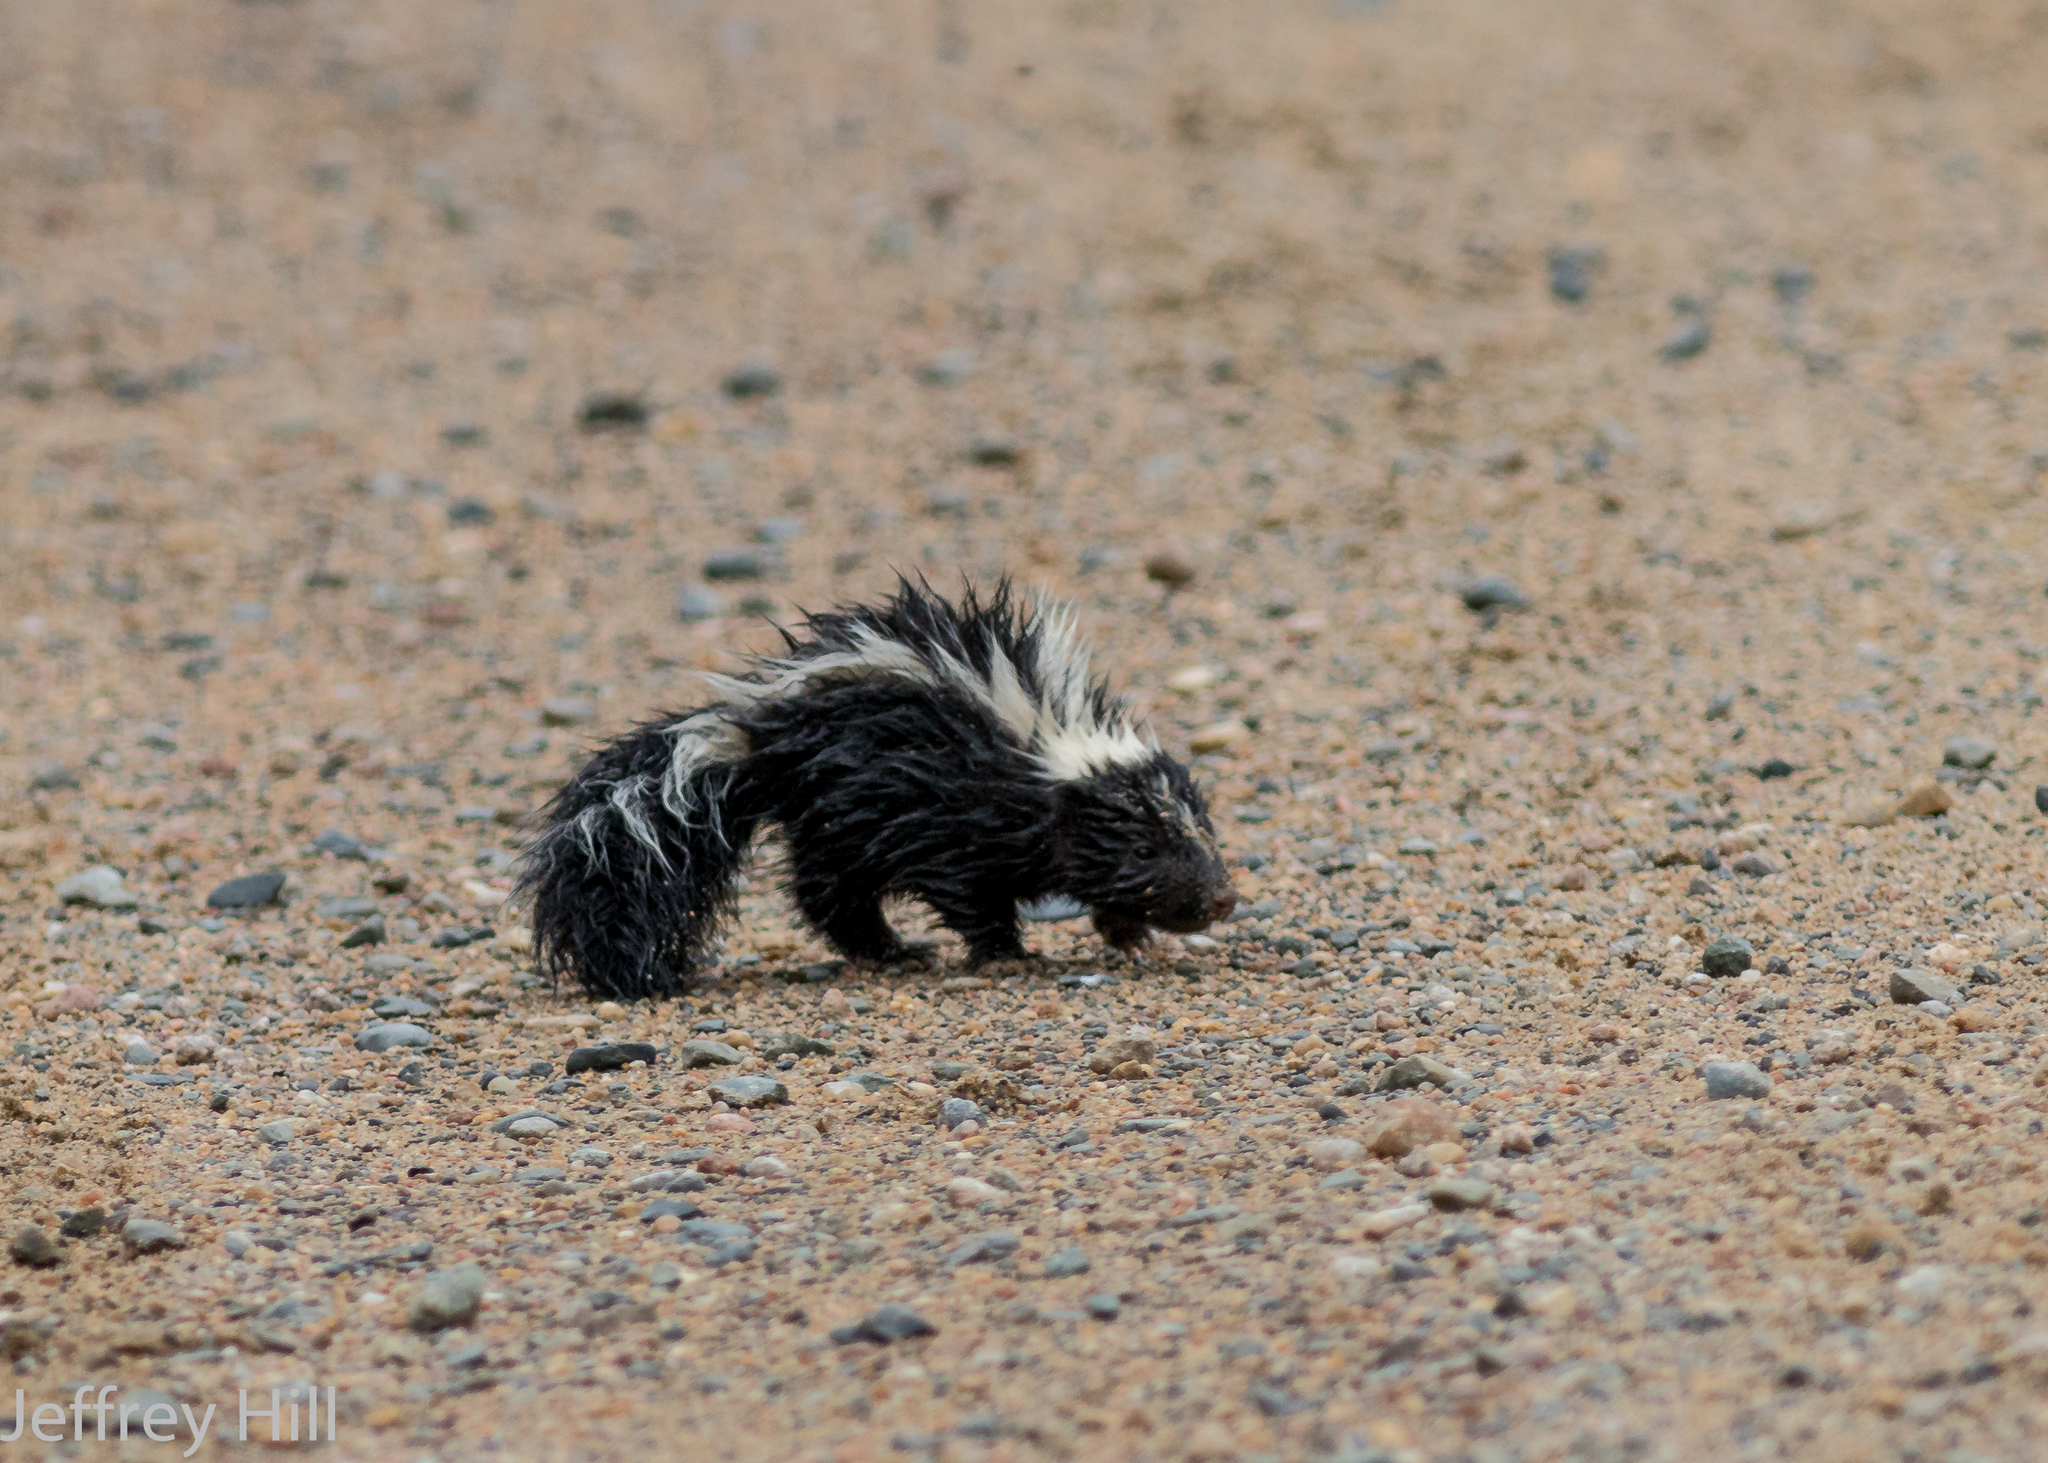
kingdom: Animalia
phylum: Chordata
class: Mammalia
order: Carnivora
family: Mephitidae
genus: Mephitis
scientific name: Mephitis mephitis
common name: Striped skunk
